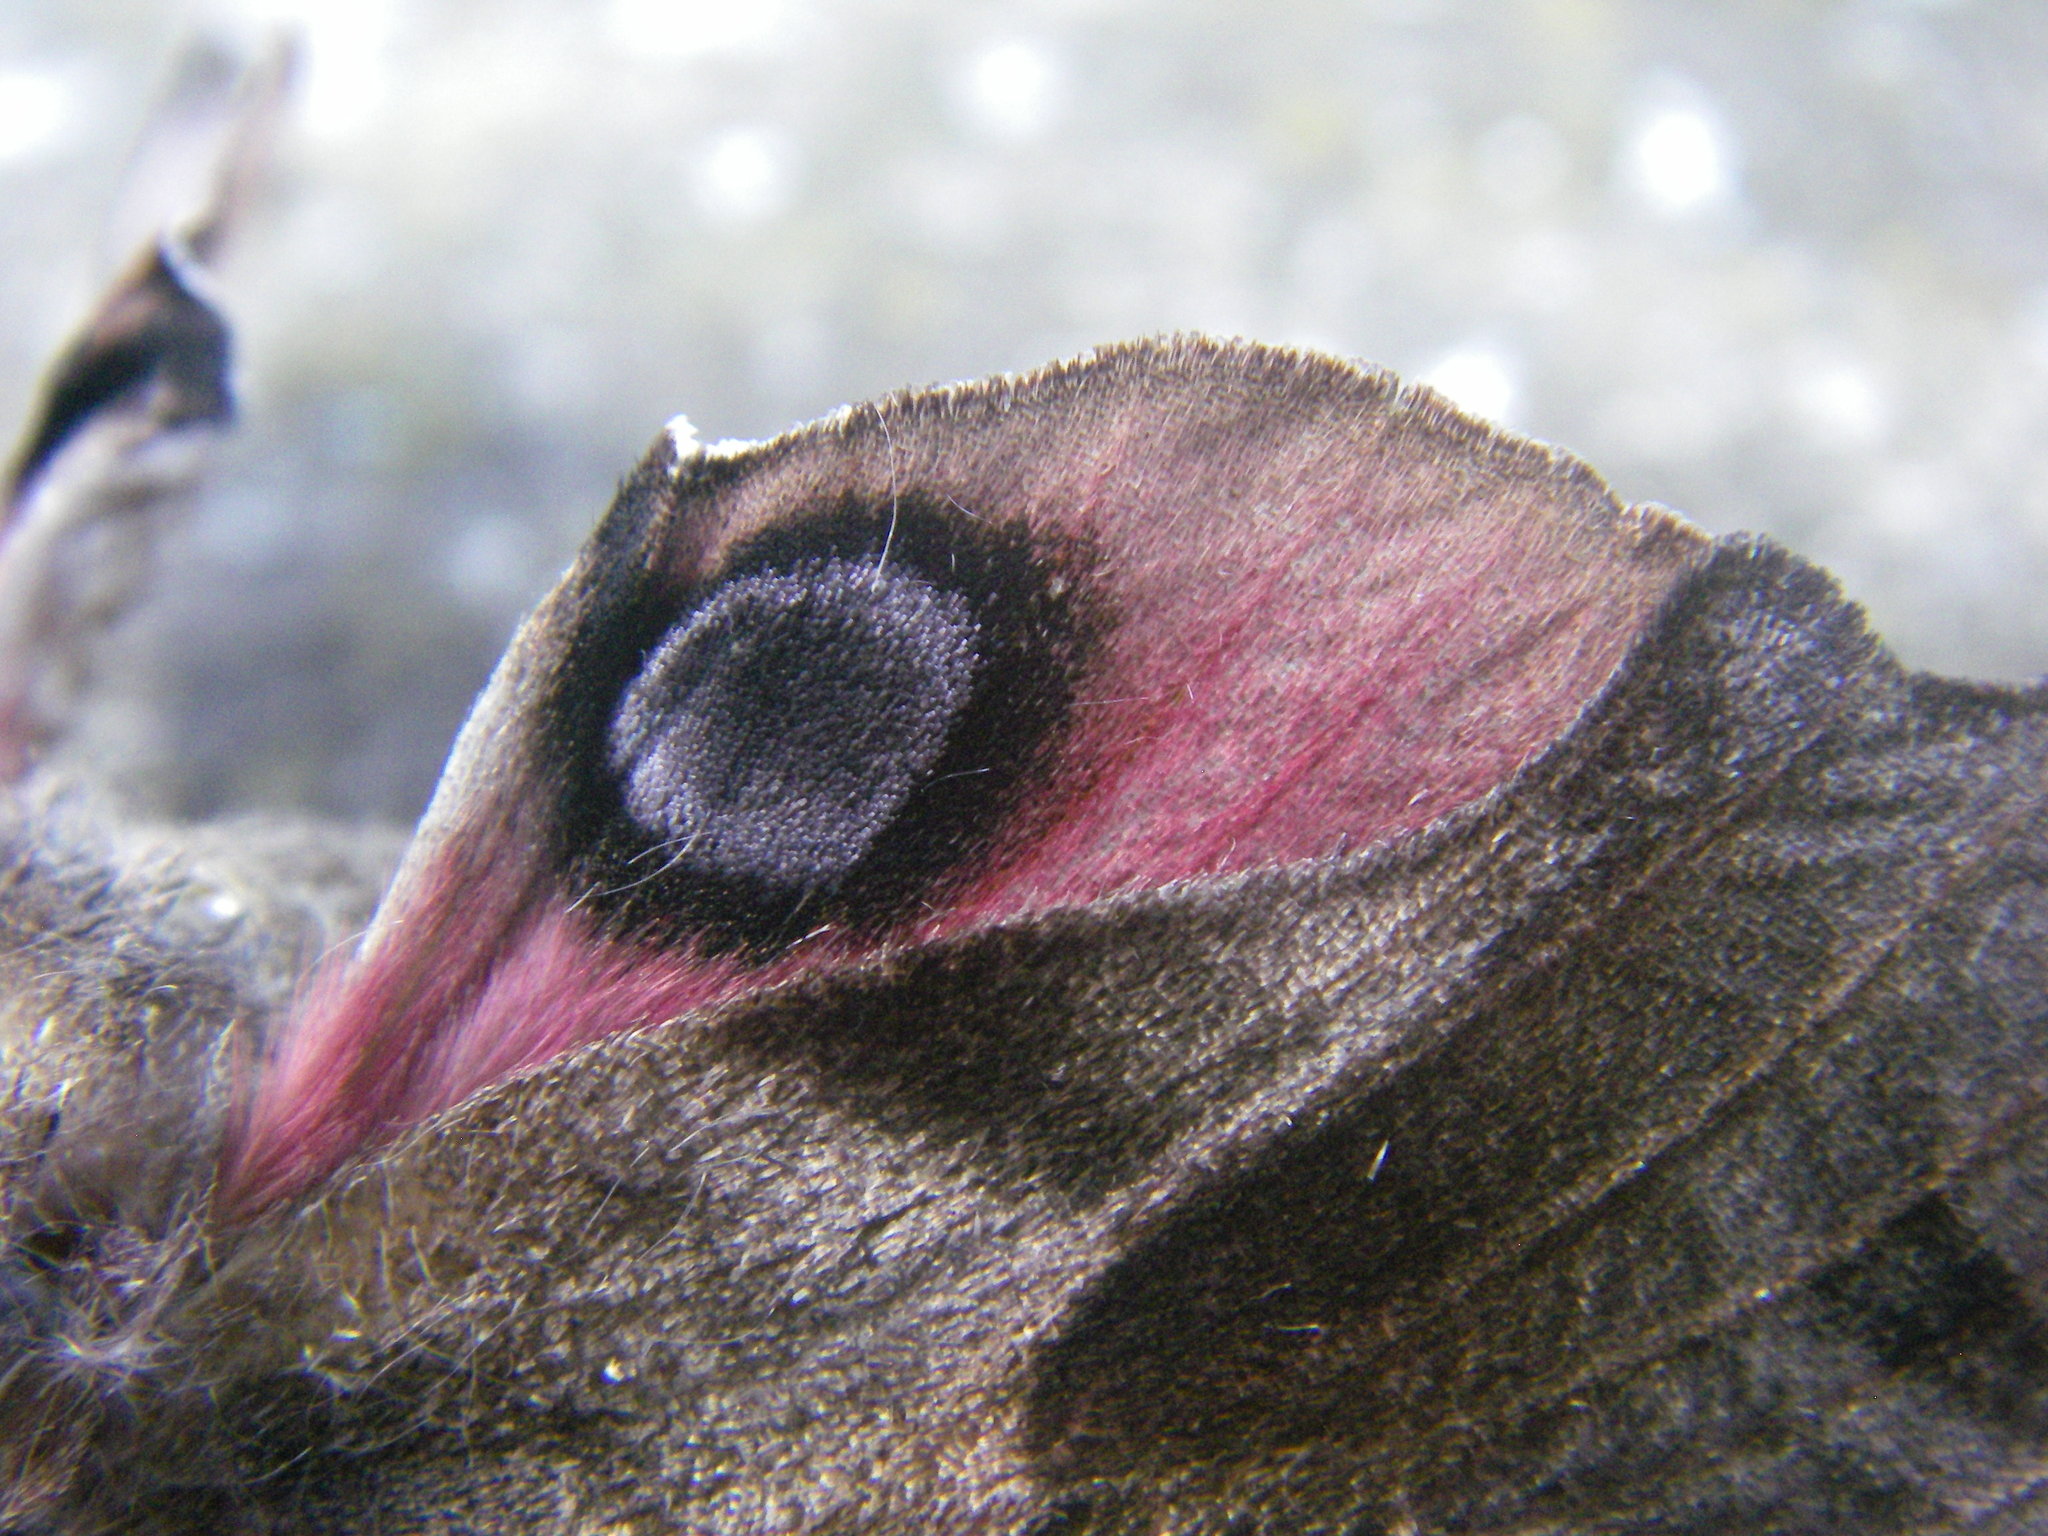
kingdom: Animalia
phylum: Arthropoda
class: Insecta
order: Lepidoptera
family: Sphingidae
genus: Smerinthus
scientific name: Smerinthus ocellata
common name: Eyed hawk-moth
